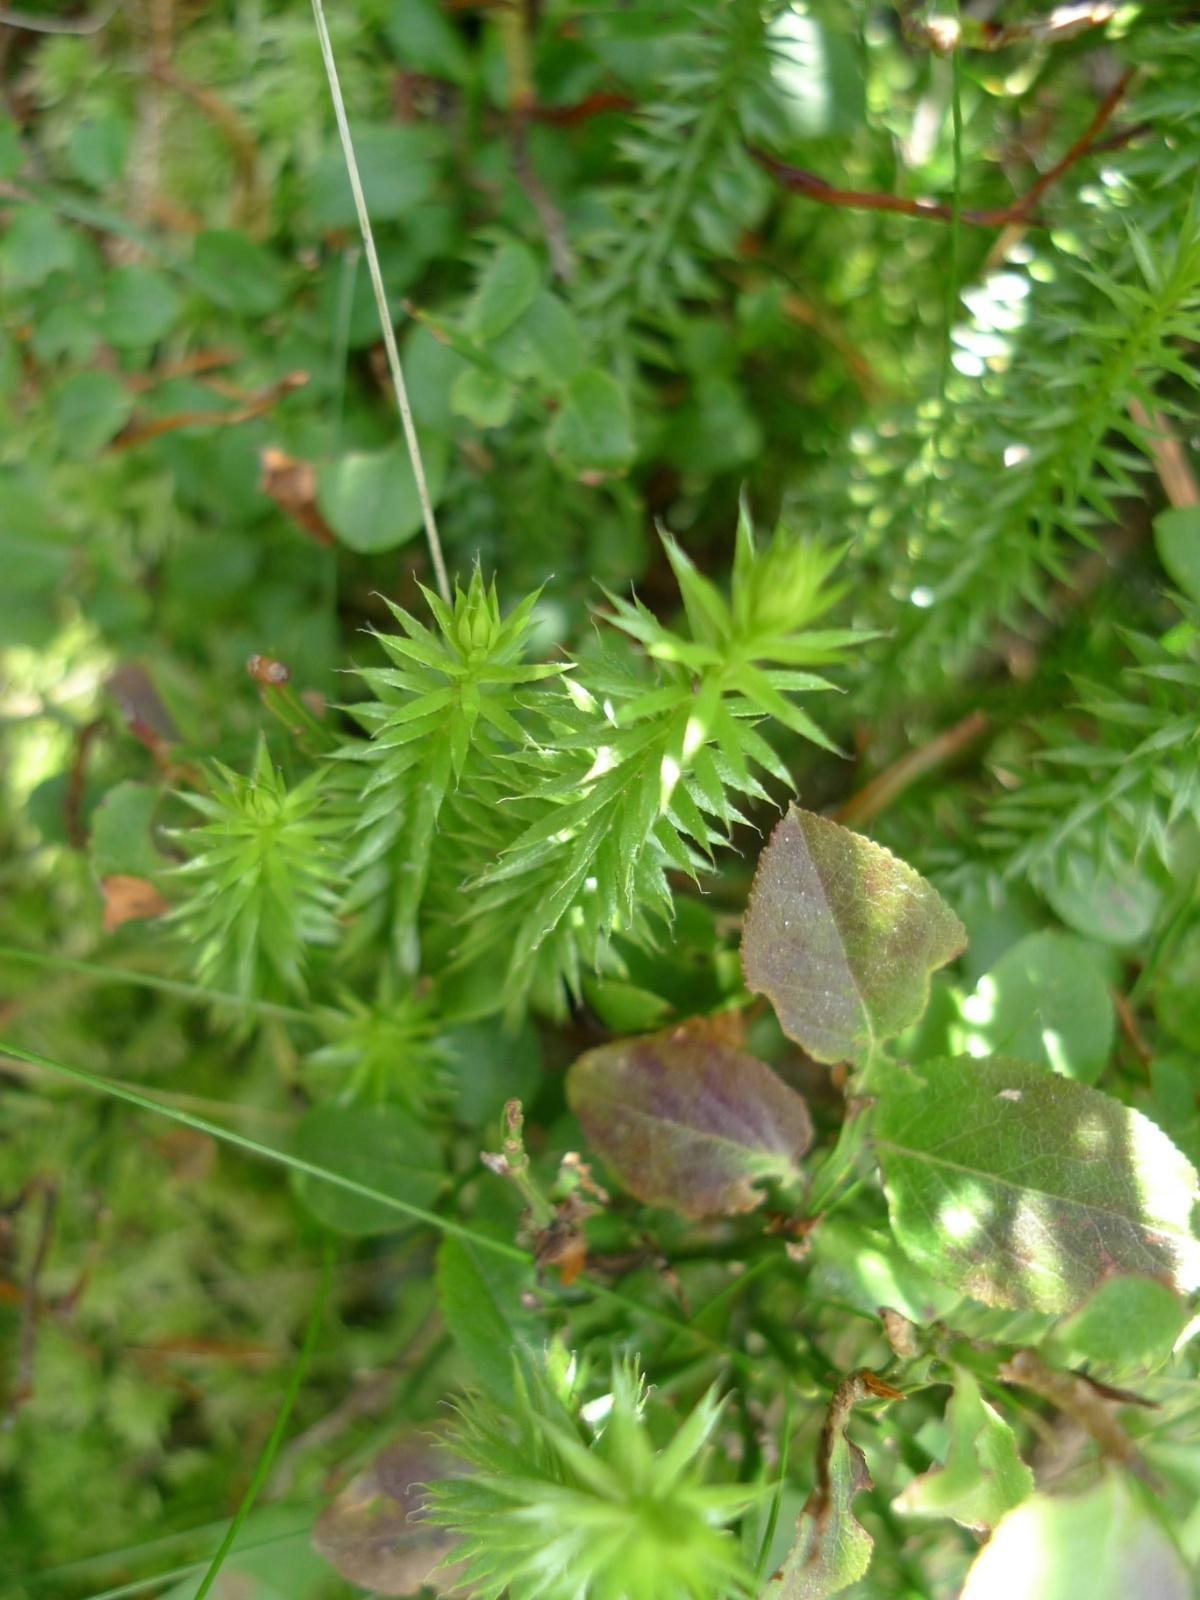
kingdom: Plantae
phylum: Tracheophyta
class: Lycopodiopsida
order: Lycopodiales
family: Lycopodiaceae
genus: Spinulum
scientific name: Spinulum annotinum
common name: Interrupted club-moss
